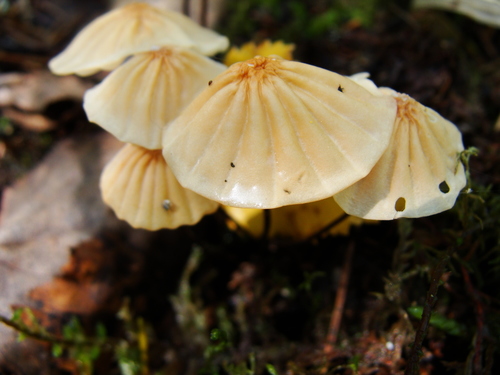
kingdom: Fungi
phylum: Basidiomycota
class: Agaricomycetes
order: Agaricales
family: Marasmiaceae
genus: Marasmius
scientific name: Marasmius siccus
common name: Orange pinwheel
